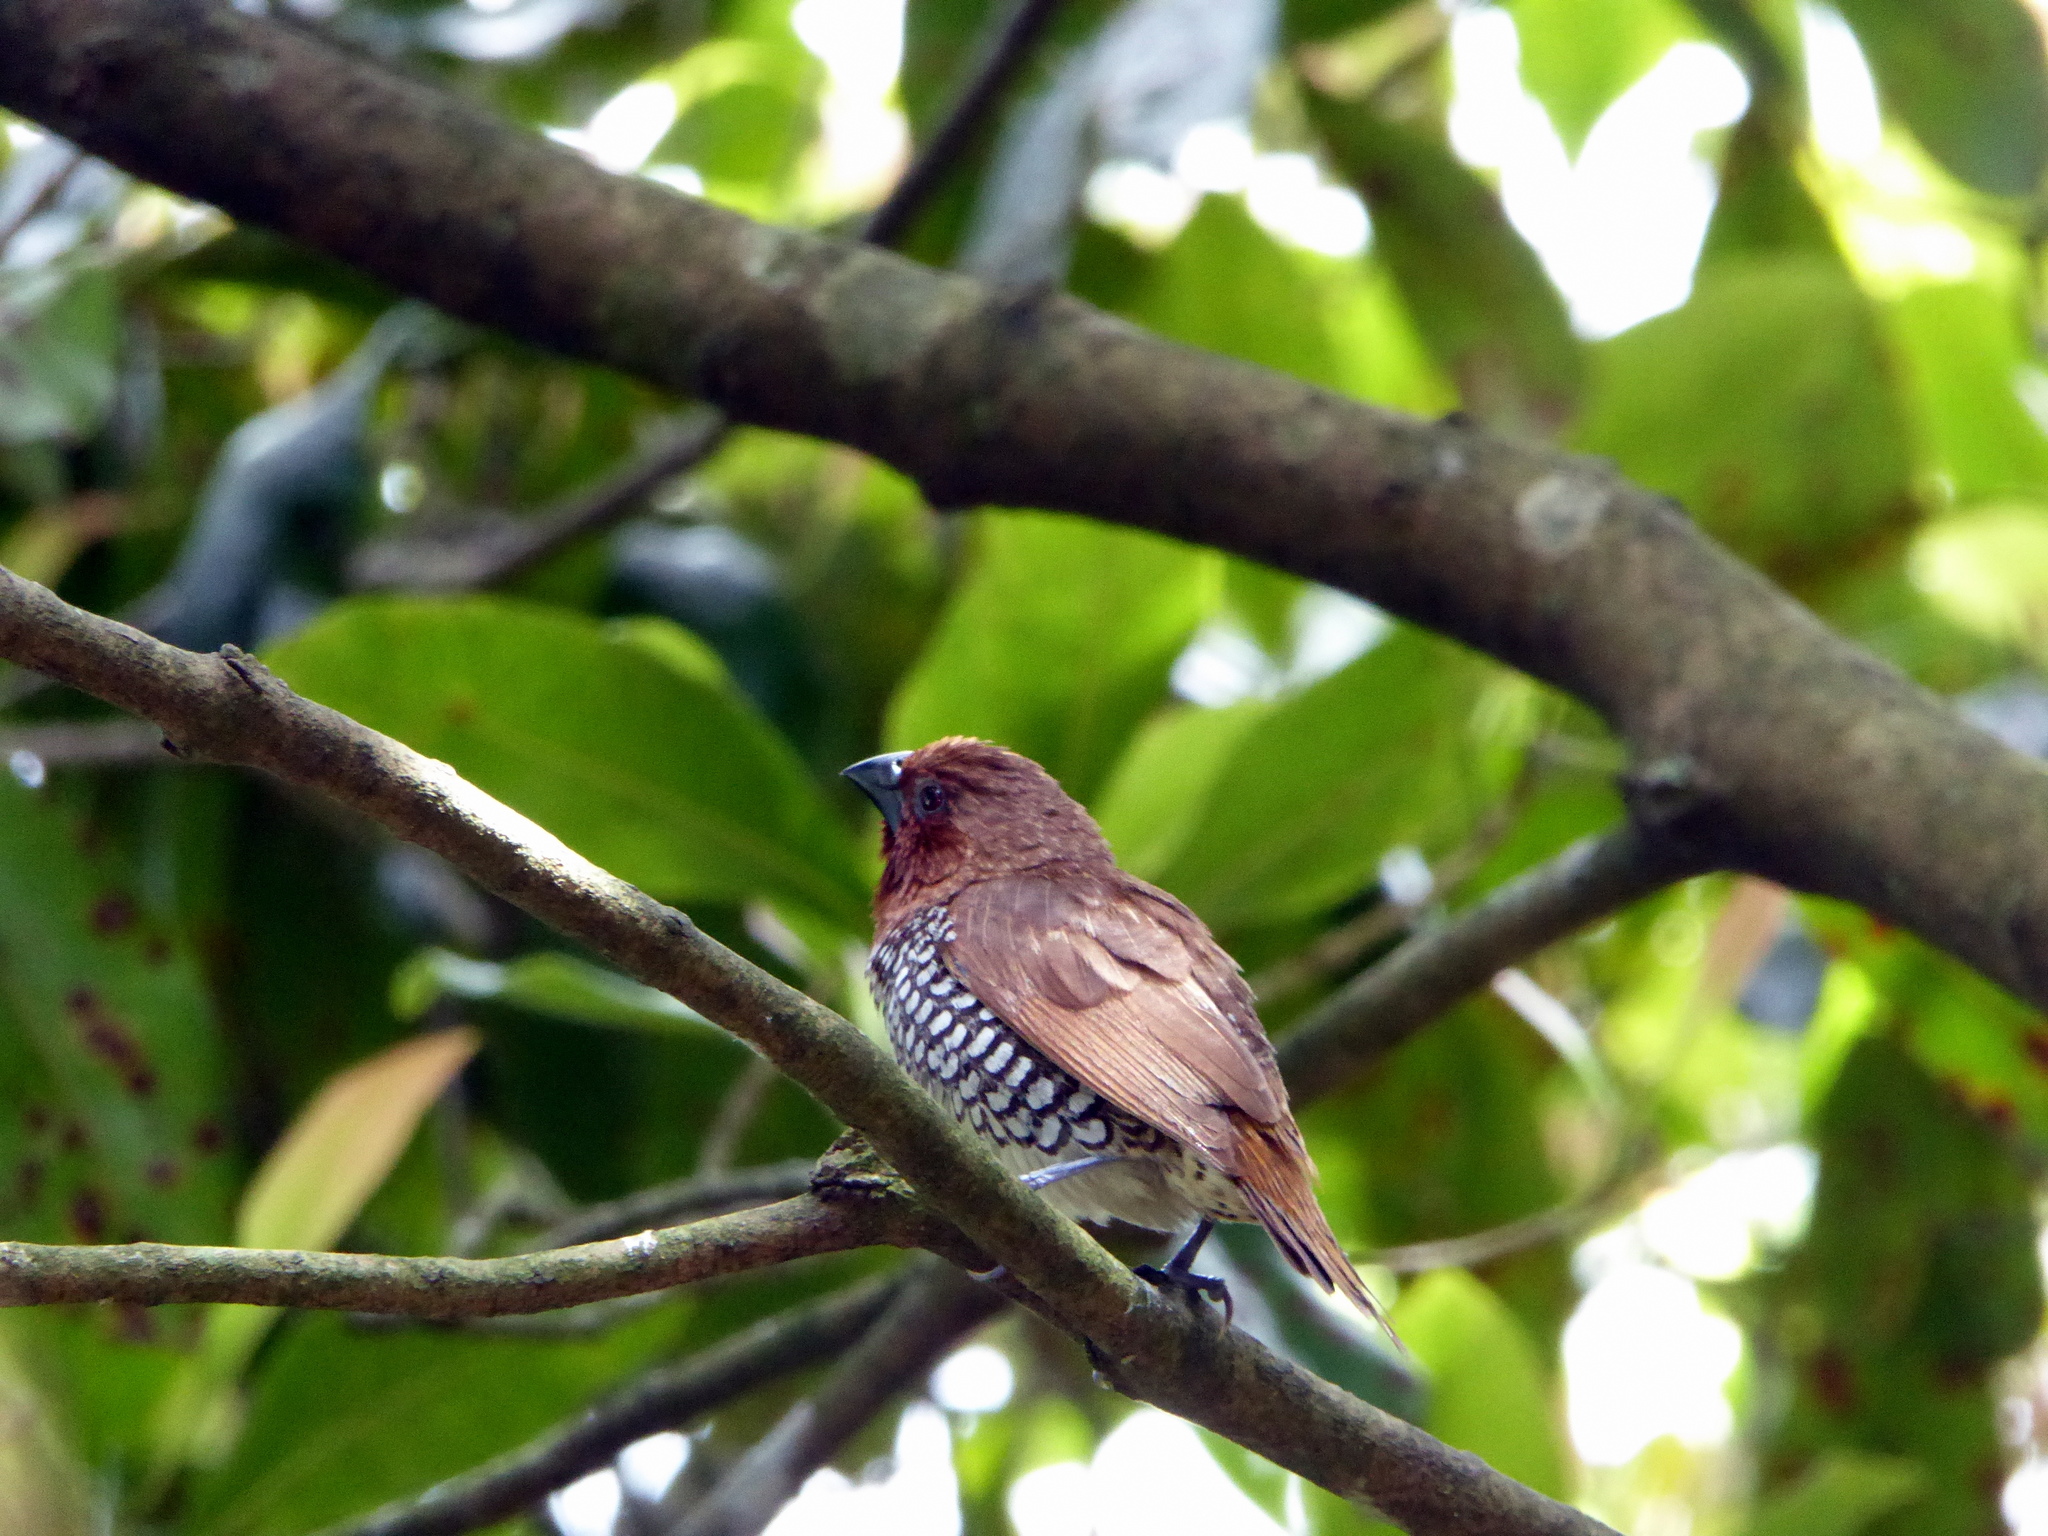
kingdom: Animalia
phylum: Chordata
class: Aves
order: Passeriformes
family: Estrildidae
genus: Lonchura
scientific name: Lonchura punctulata
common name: Scaly-breasted munia
